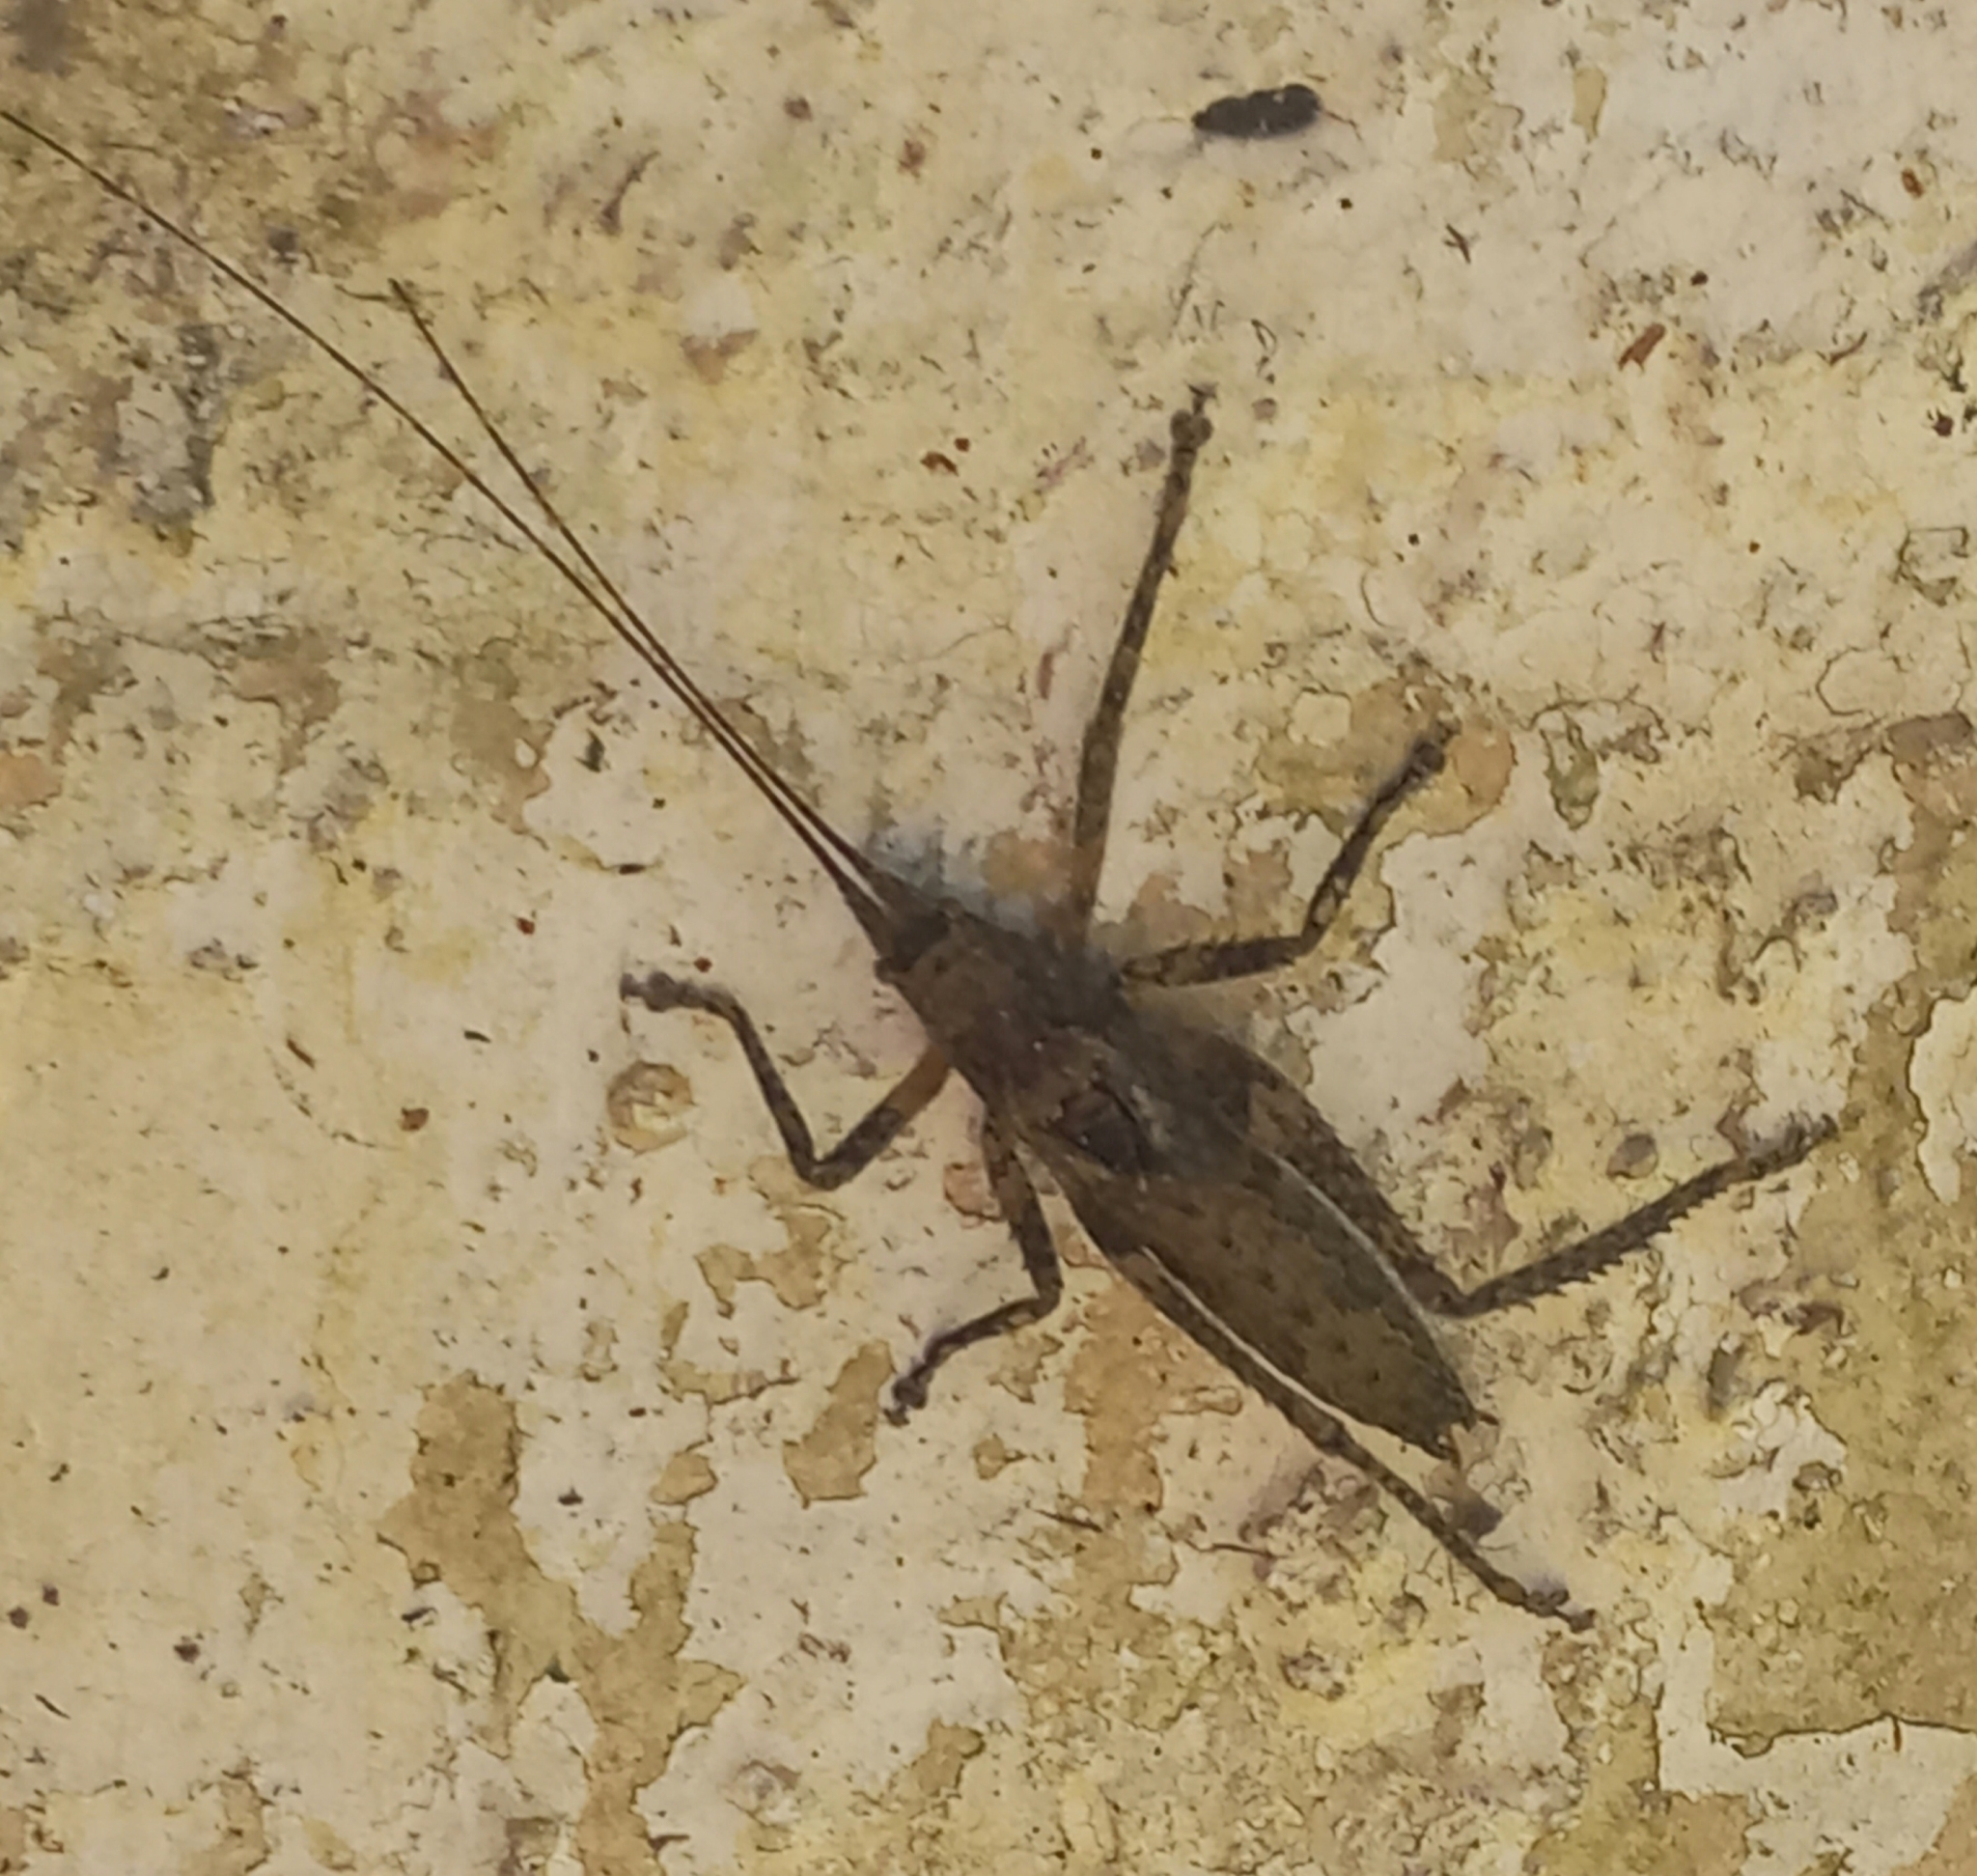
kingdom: Animalia
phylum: Arthropoda
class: Insecta
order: Orthoptera
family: Tettigoniidae
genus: Dasyscelus
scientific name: Dasyscelus normalis
